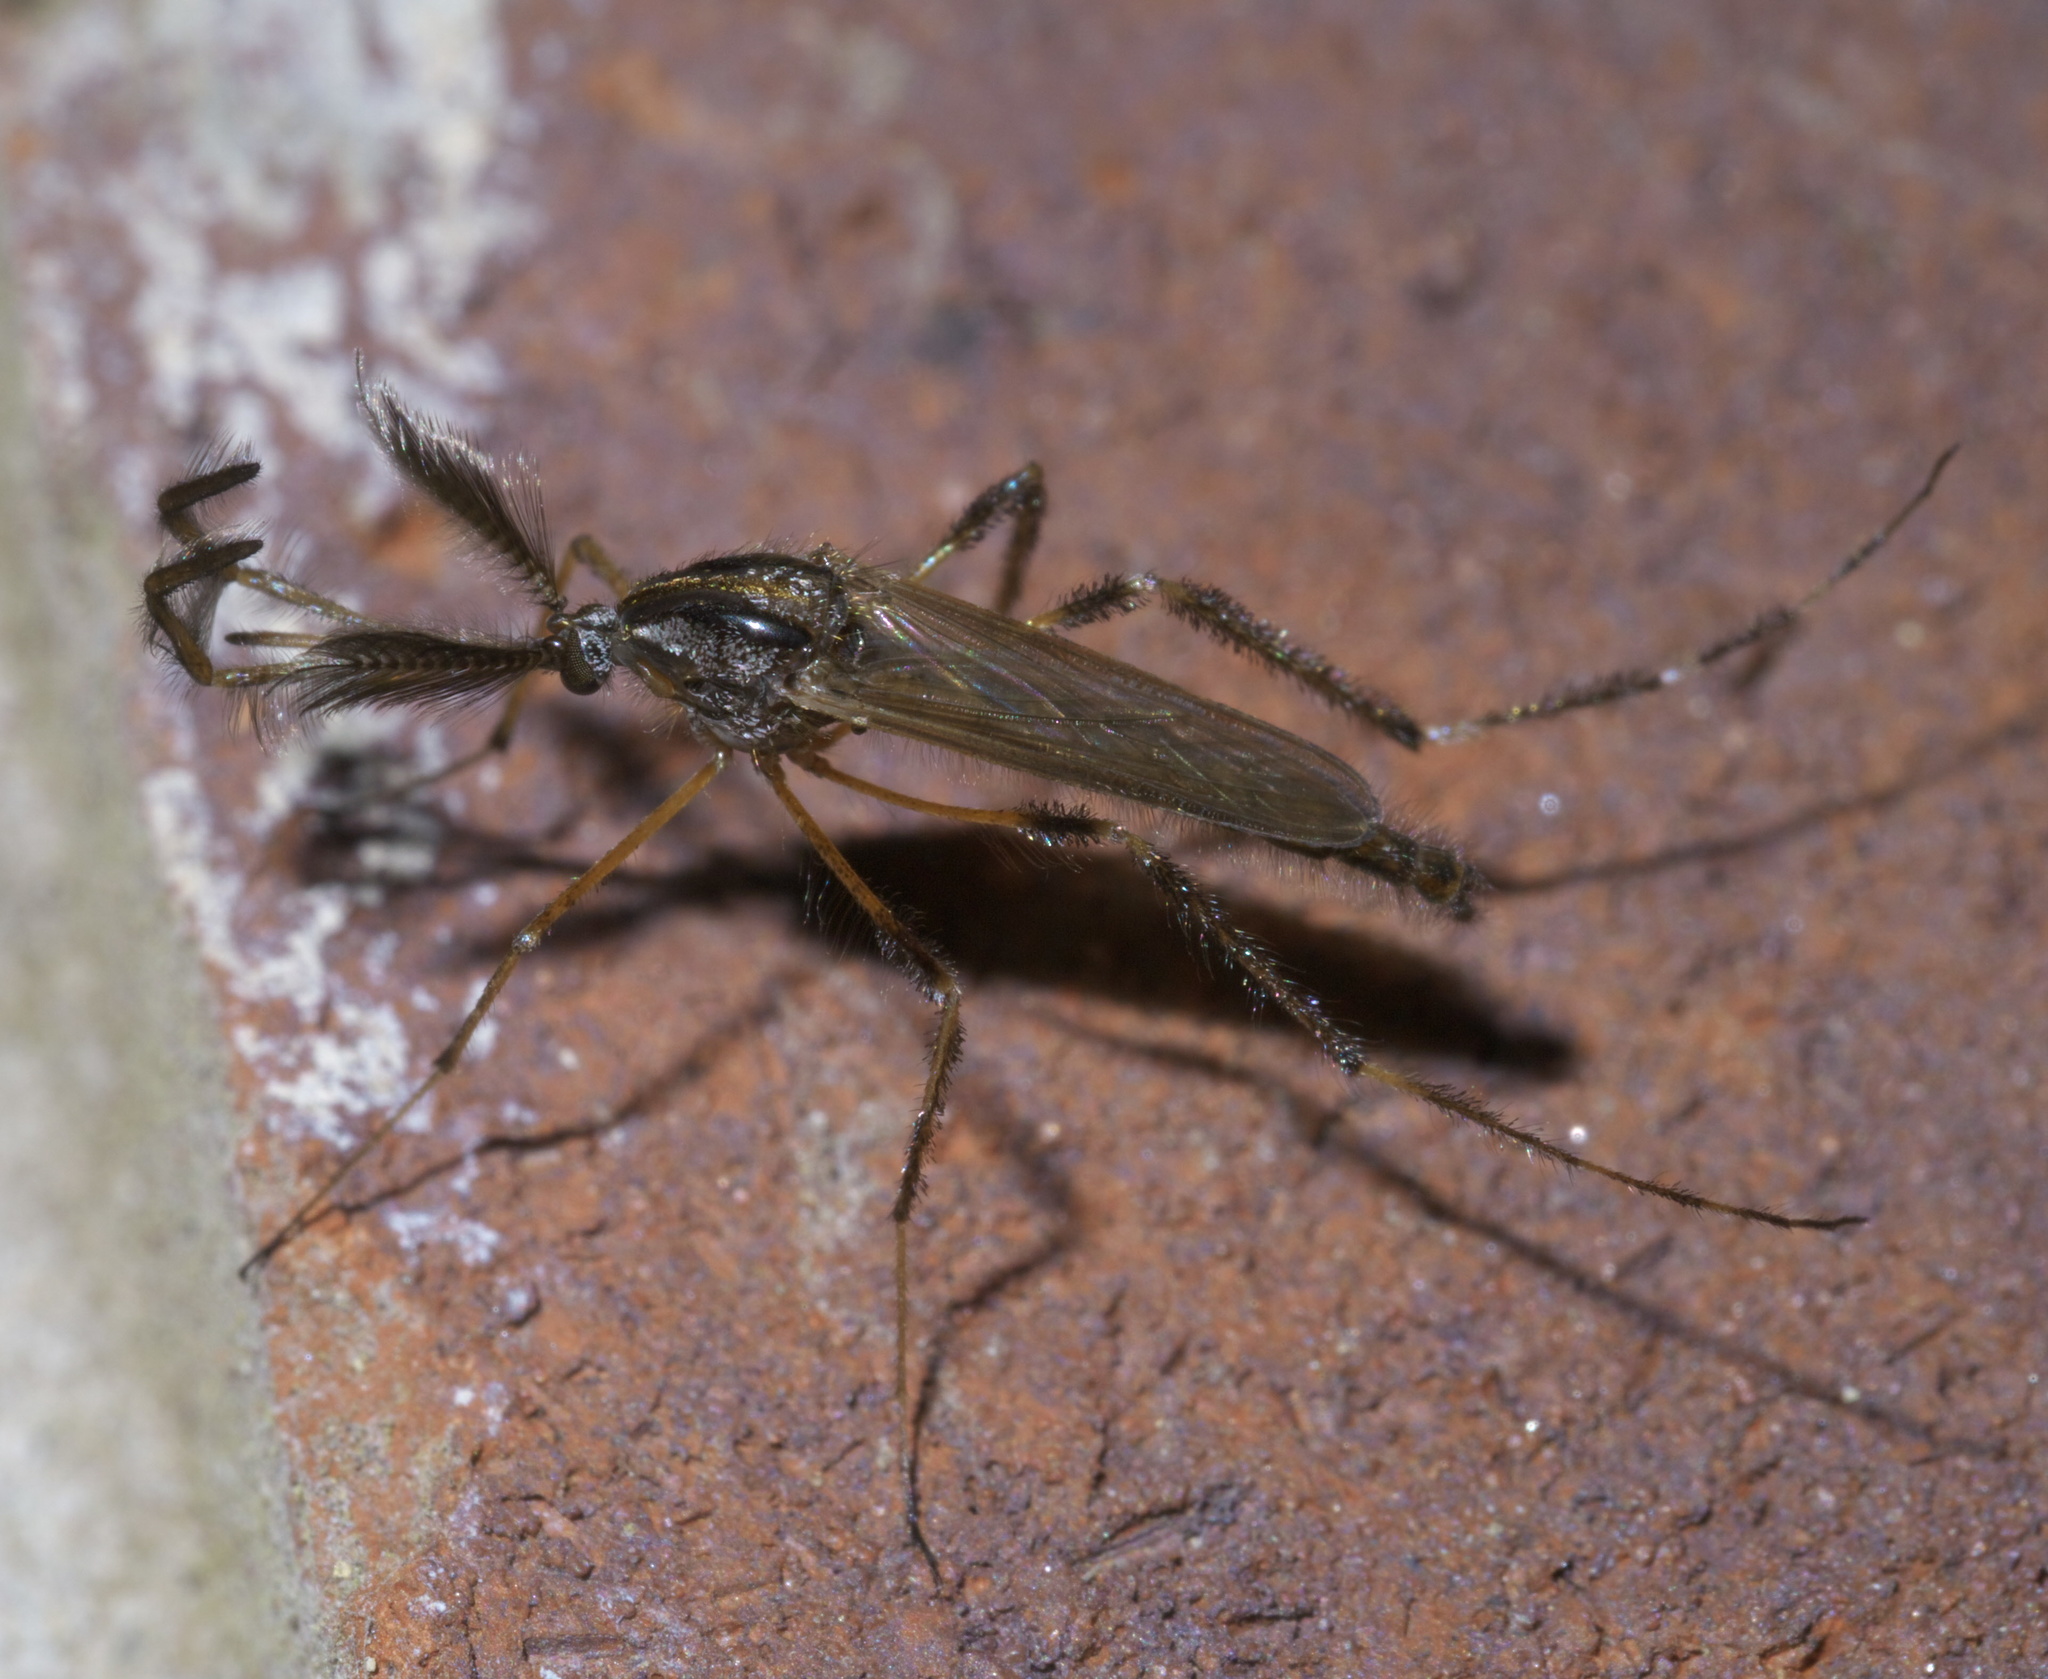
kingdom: Animalia
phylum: Arthropoda
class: Insecta
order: Diptera
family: Culicidae
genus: Psorophora
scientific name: Psorophora ciliata
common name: Gallinipper
